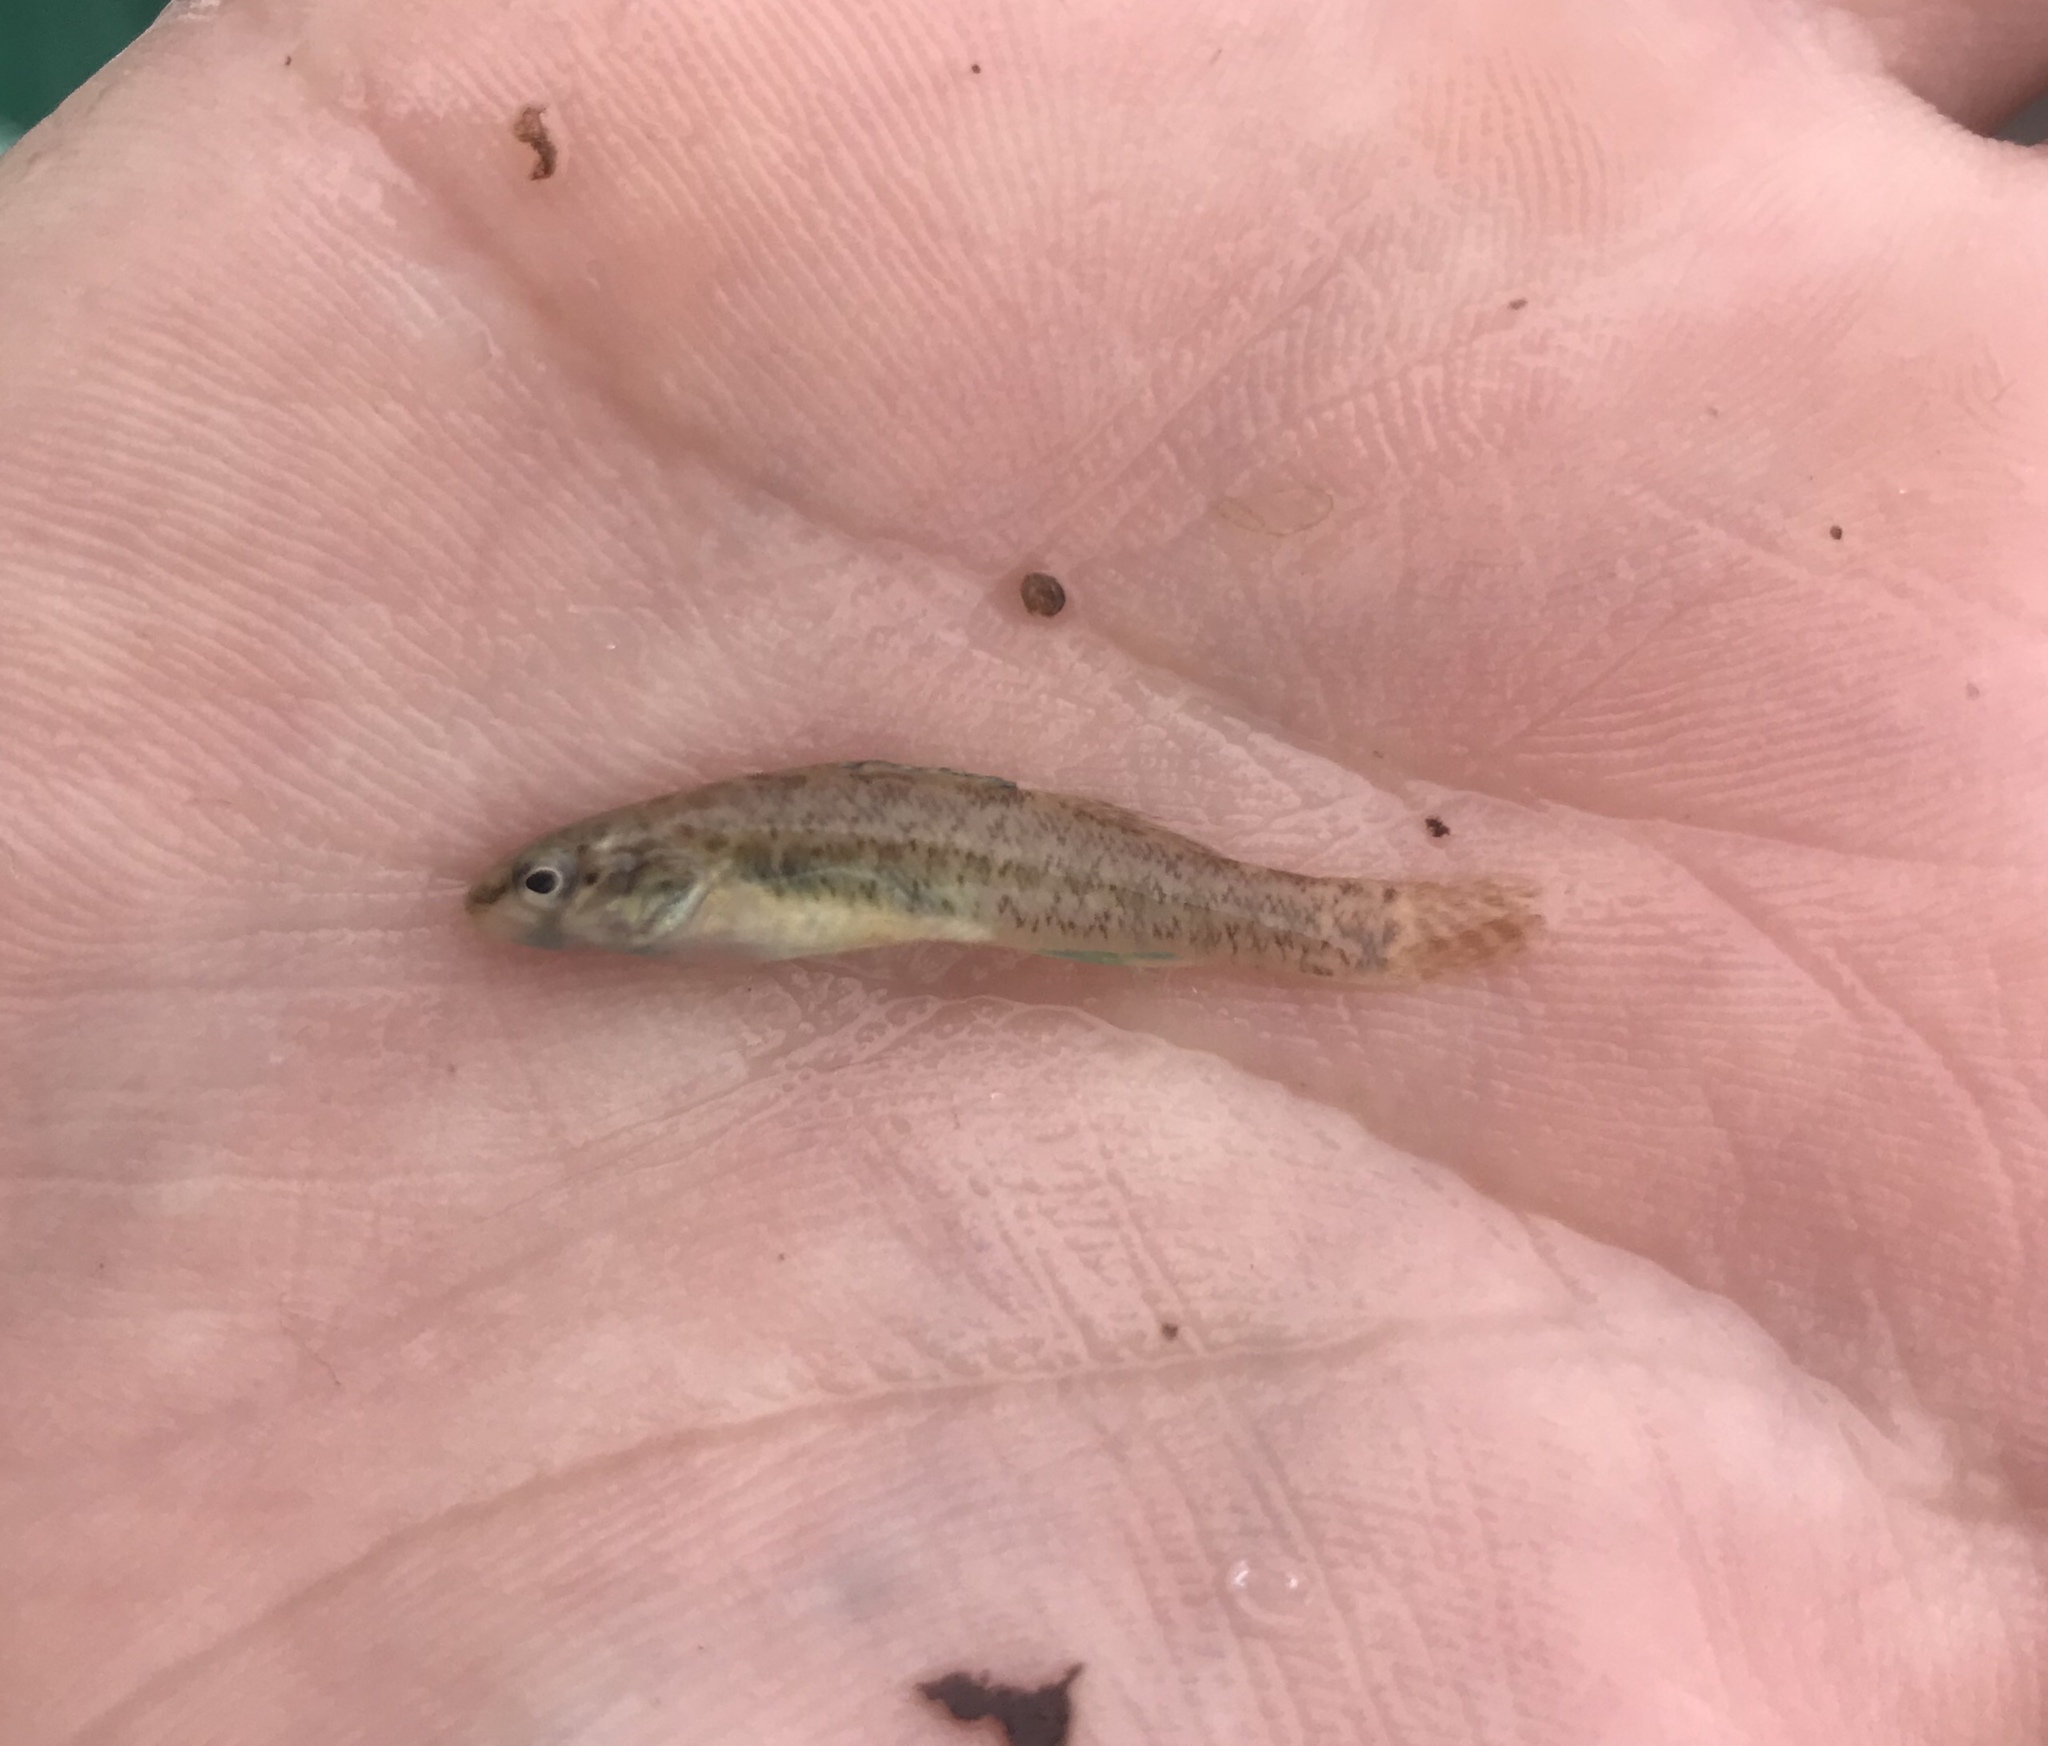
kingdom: Animalia
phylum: Chordata
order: Perciformes
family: Percidae
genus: Etheostoma
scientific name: Etheostoma lepidum
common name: Greenthroat darter
